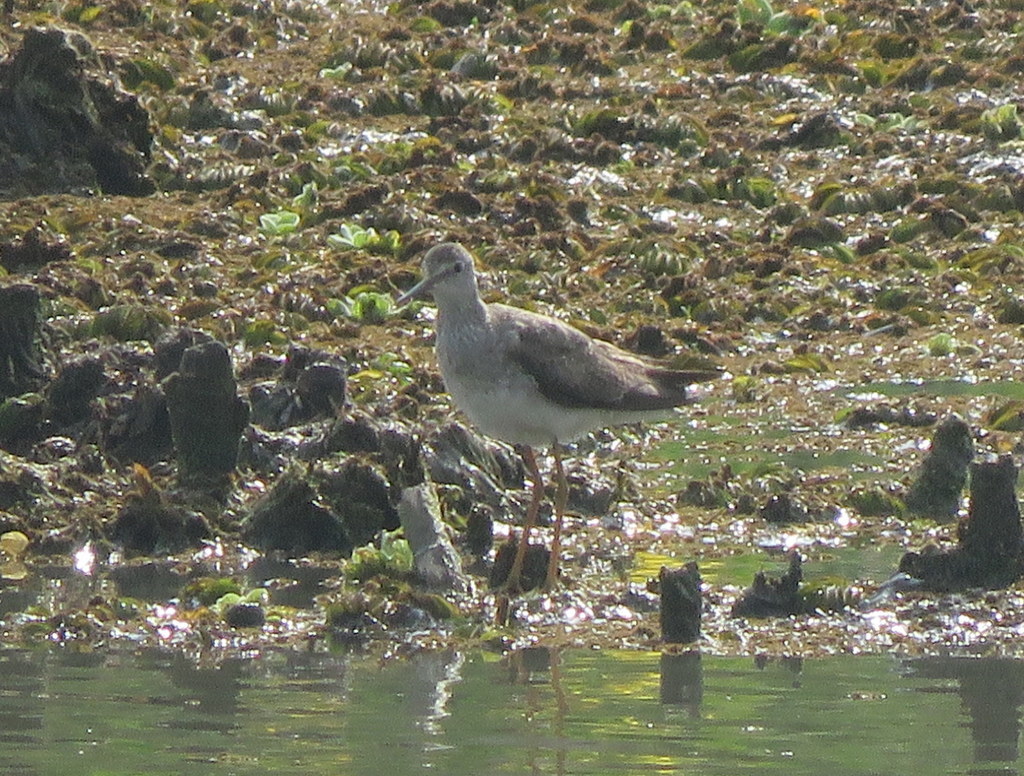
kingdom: Animalia
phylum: Chordata
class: Aves
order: Charadriiformes
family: Scolopacidae
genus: Tringa
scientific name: Tringa flavipes
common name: Lesser yellowlegs
